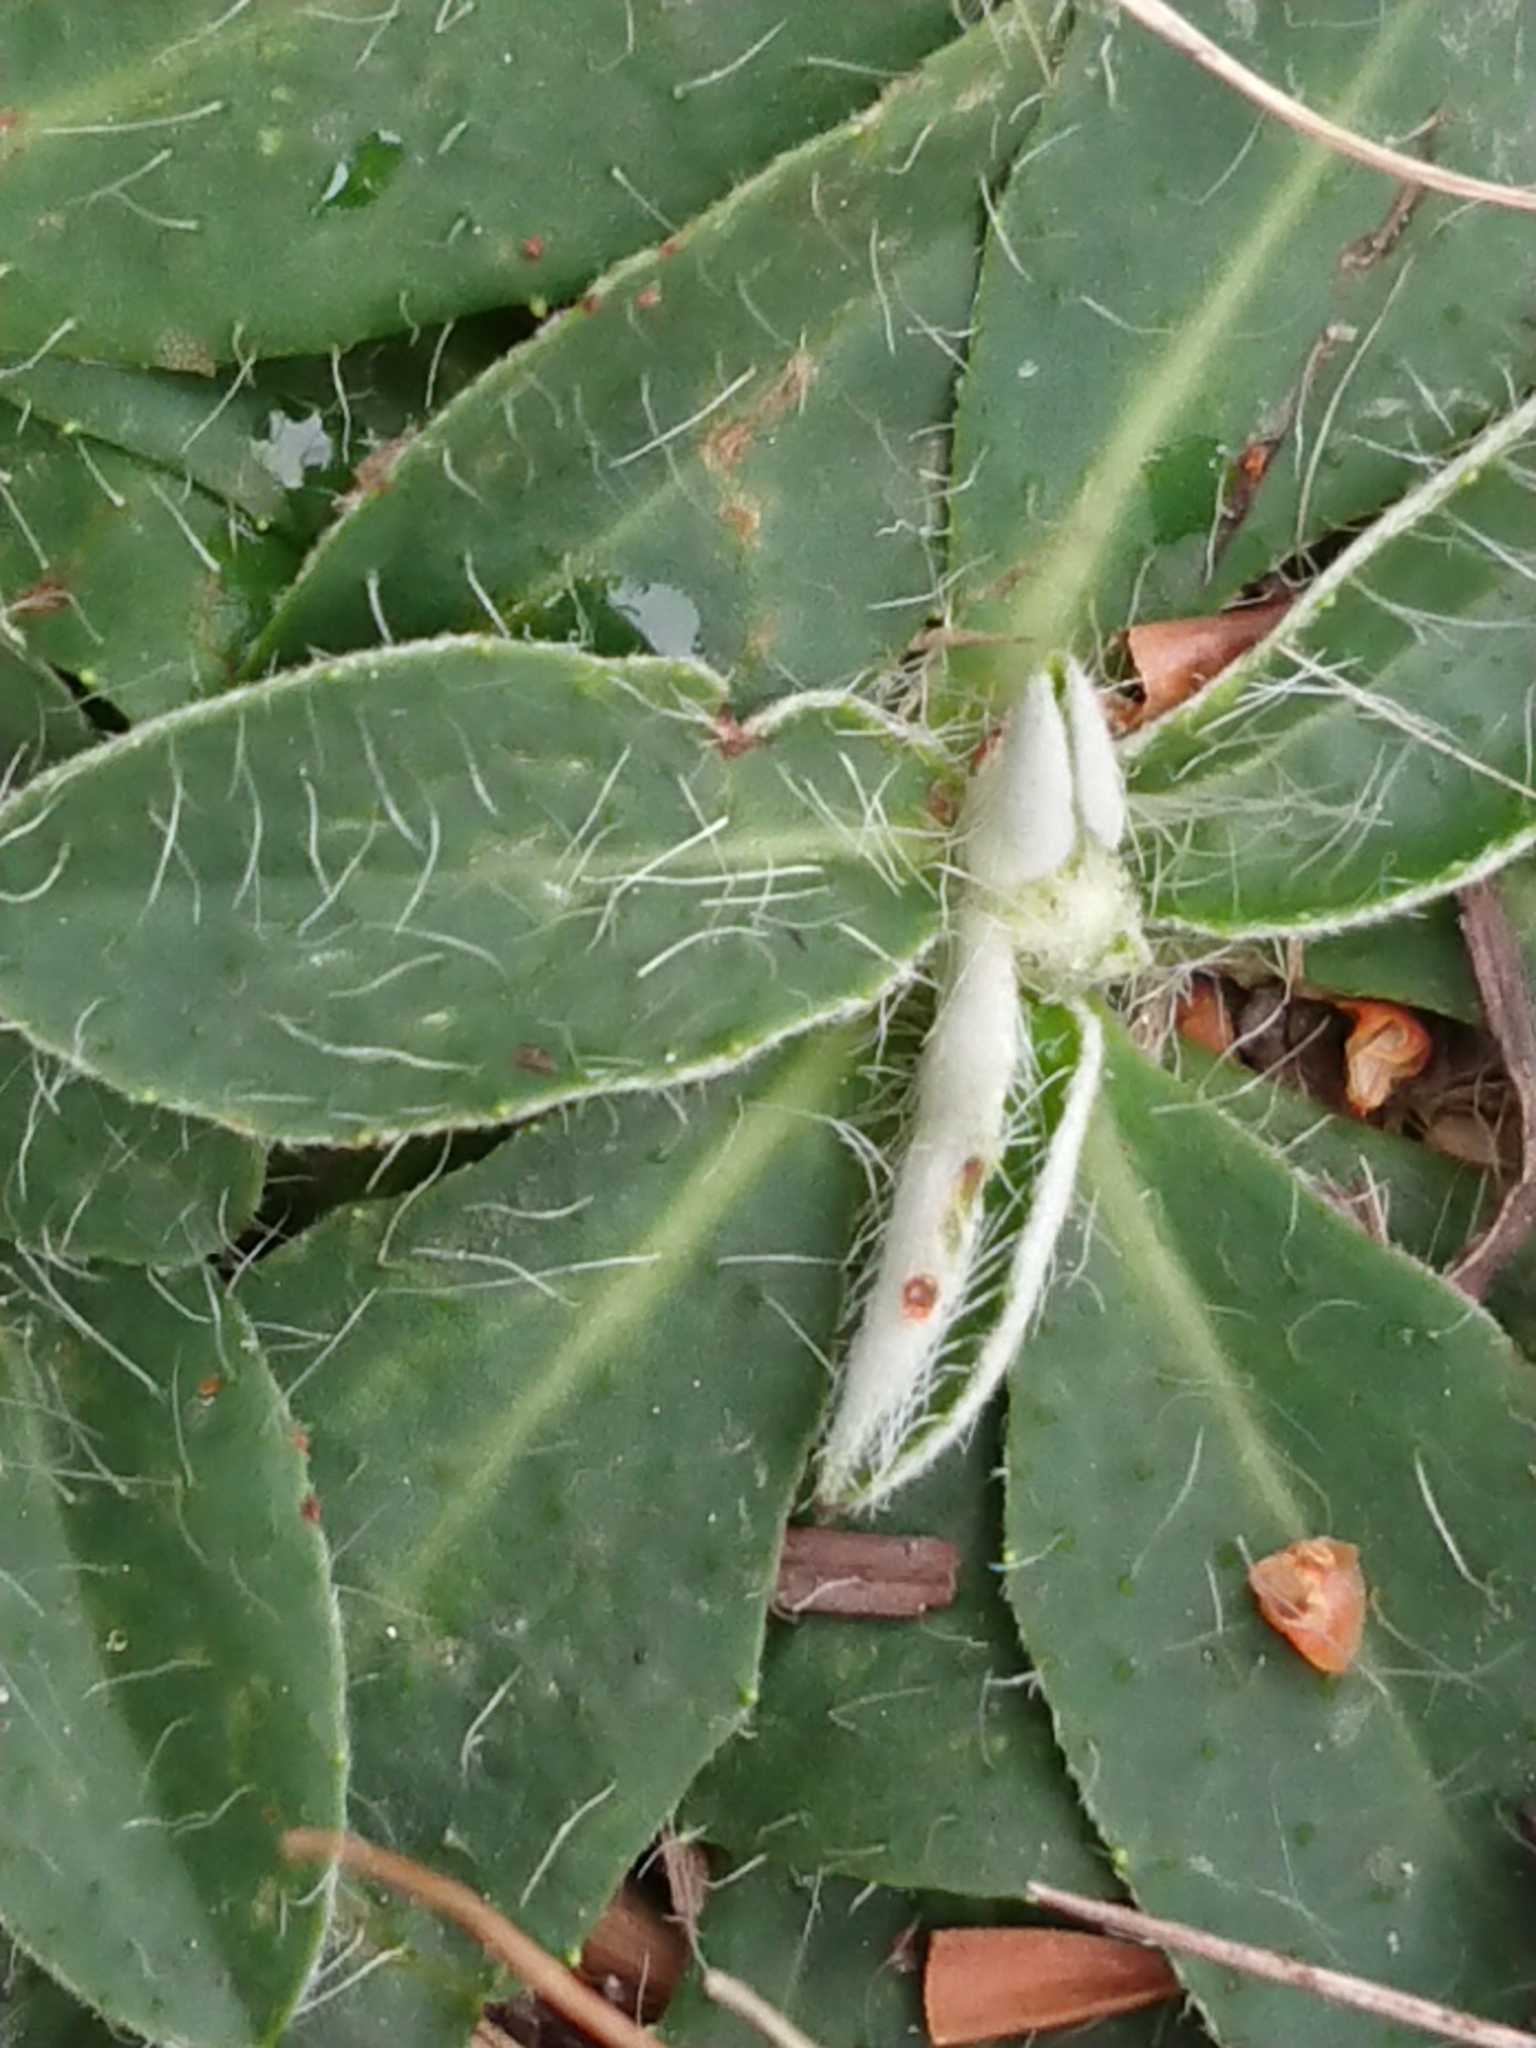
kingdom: Plantae
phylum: Tracheophyta
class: Magnoliopsida
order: Asterales
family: Asteraceae
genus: Pilosella
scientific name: Pilosella officinarum
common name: Mouse-ear hawkweed
